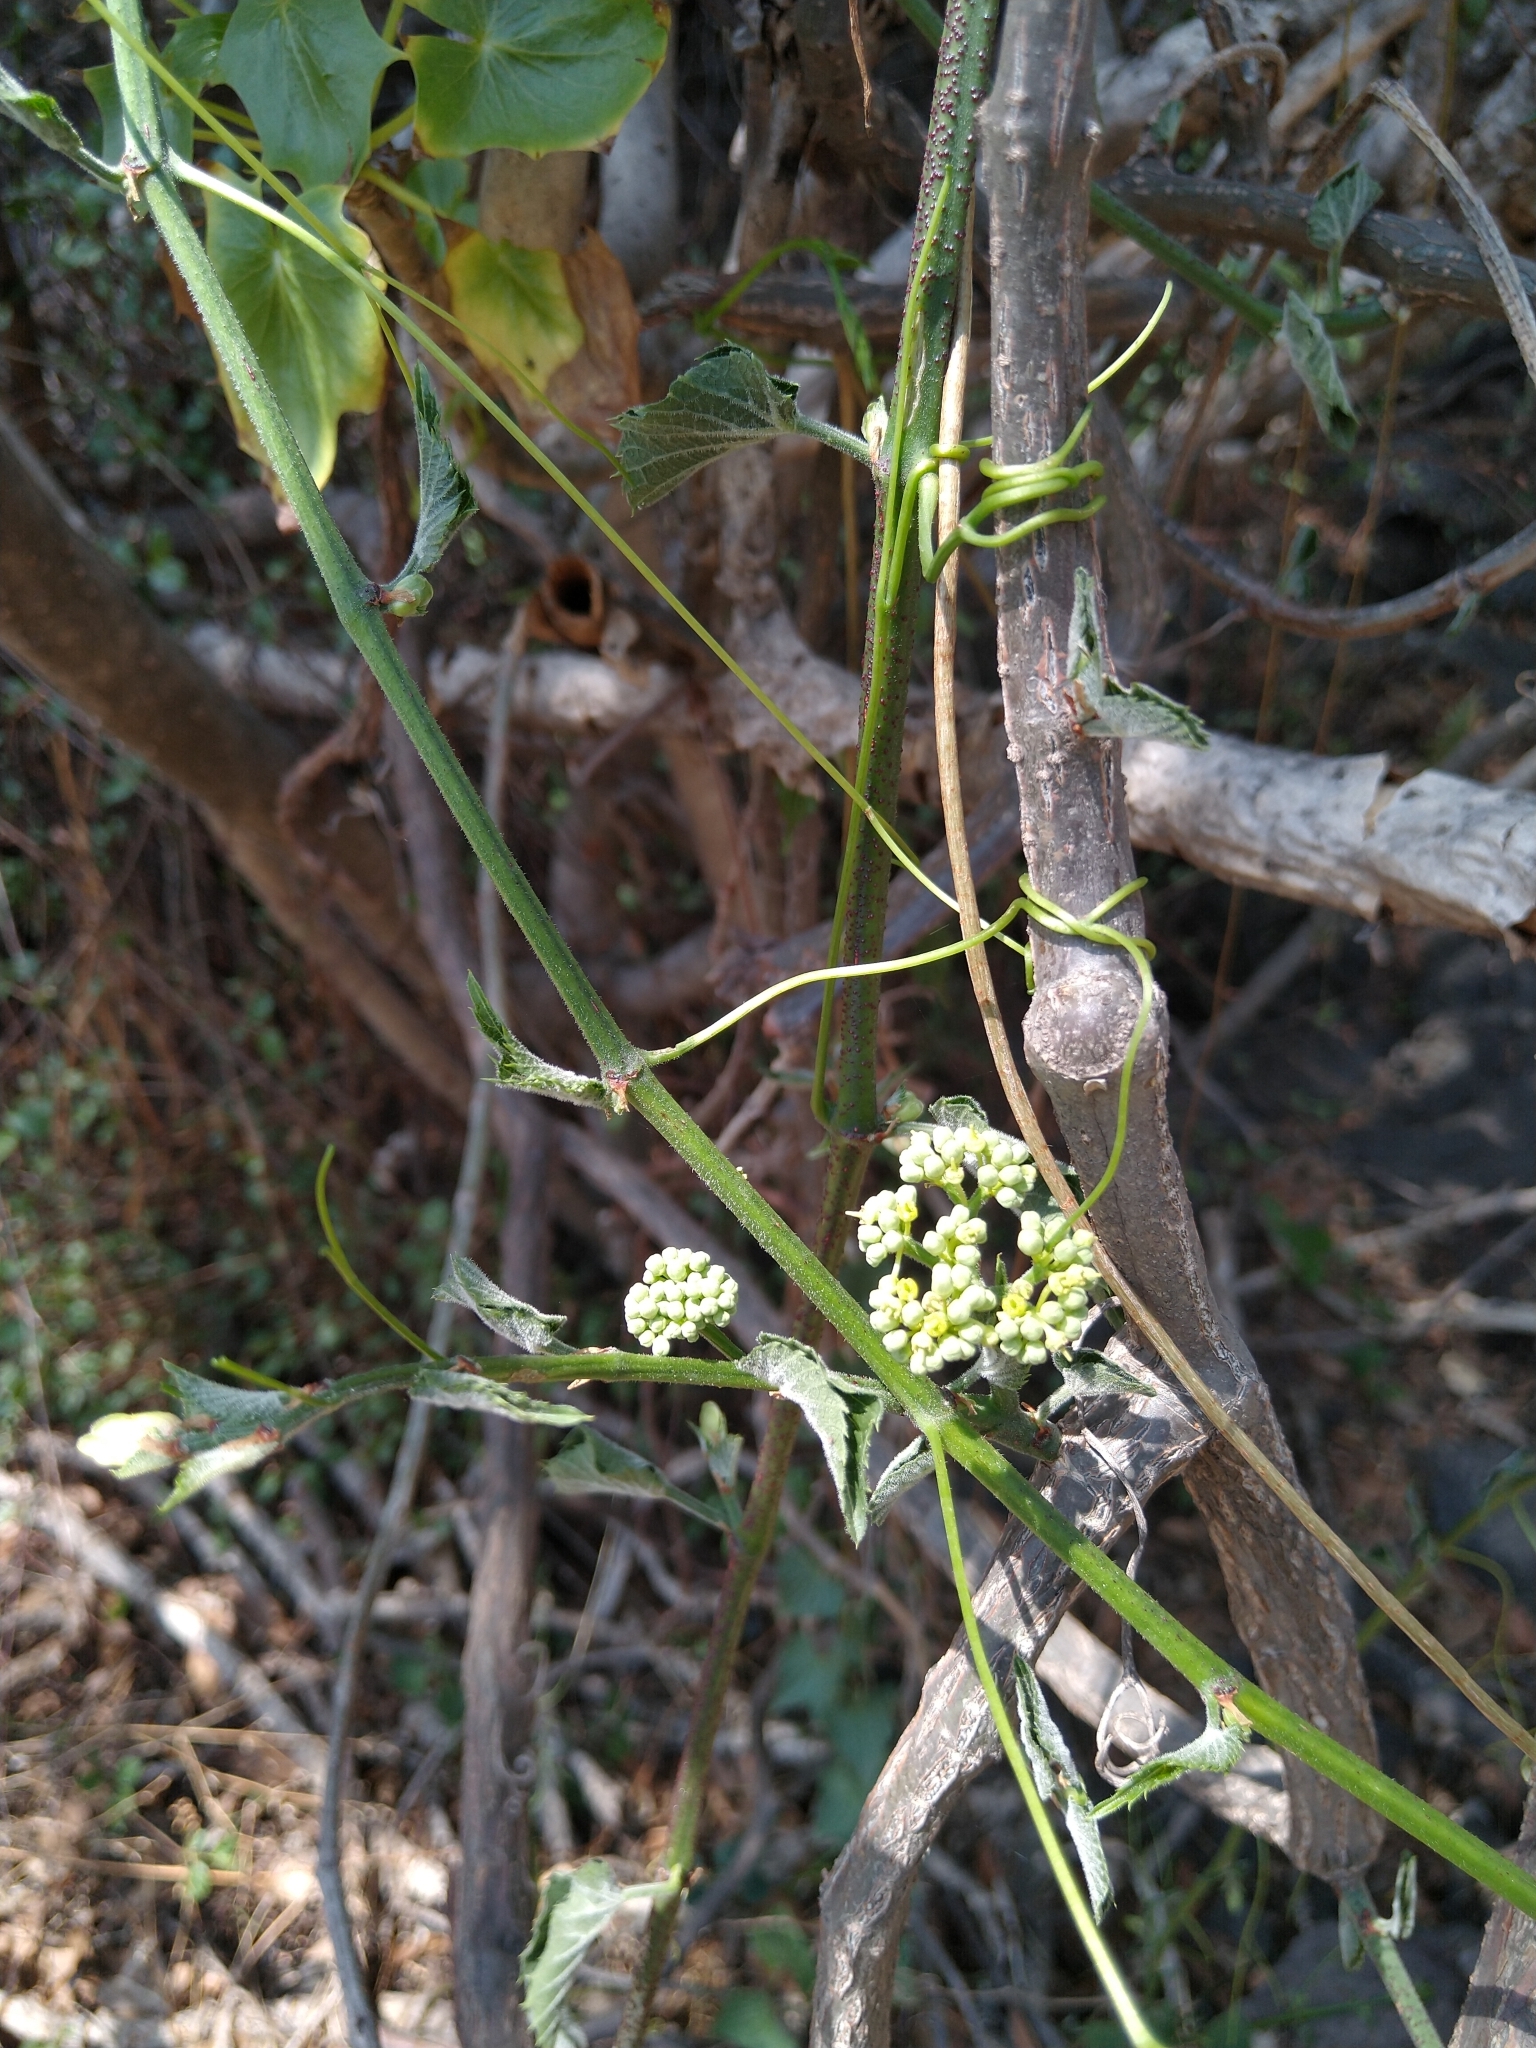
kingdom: Plantae
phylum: Tracheophyta
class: Magnoliopsida
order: Vitales
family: Vitaceae
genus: Cissus
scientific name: Cissus verticillata
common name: Princess vine
